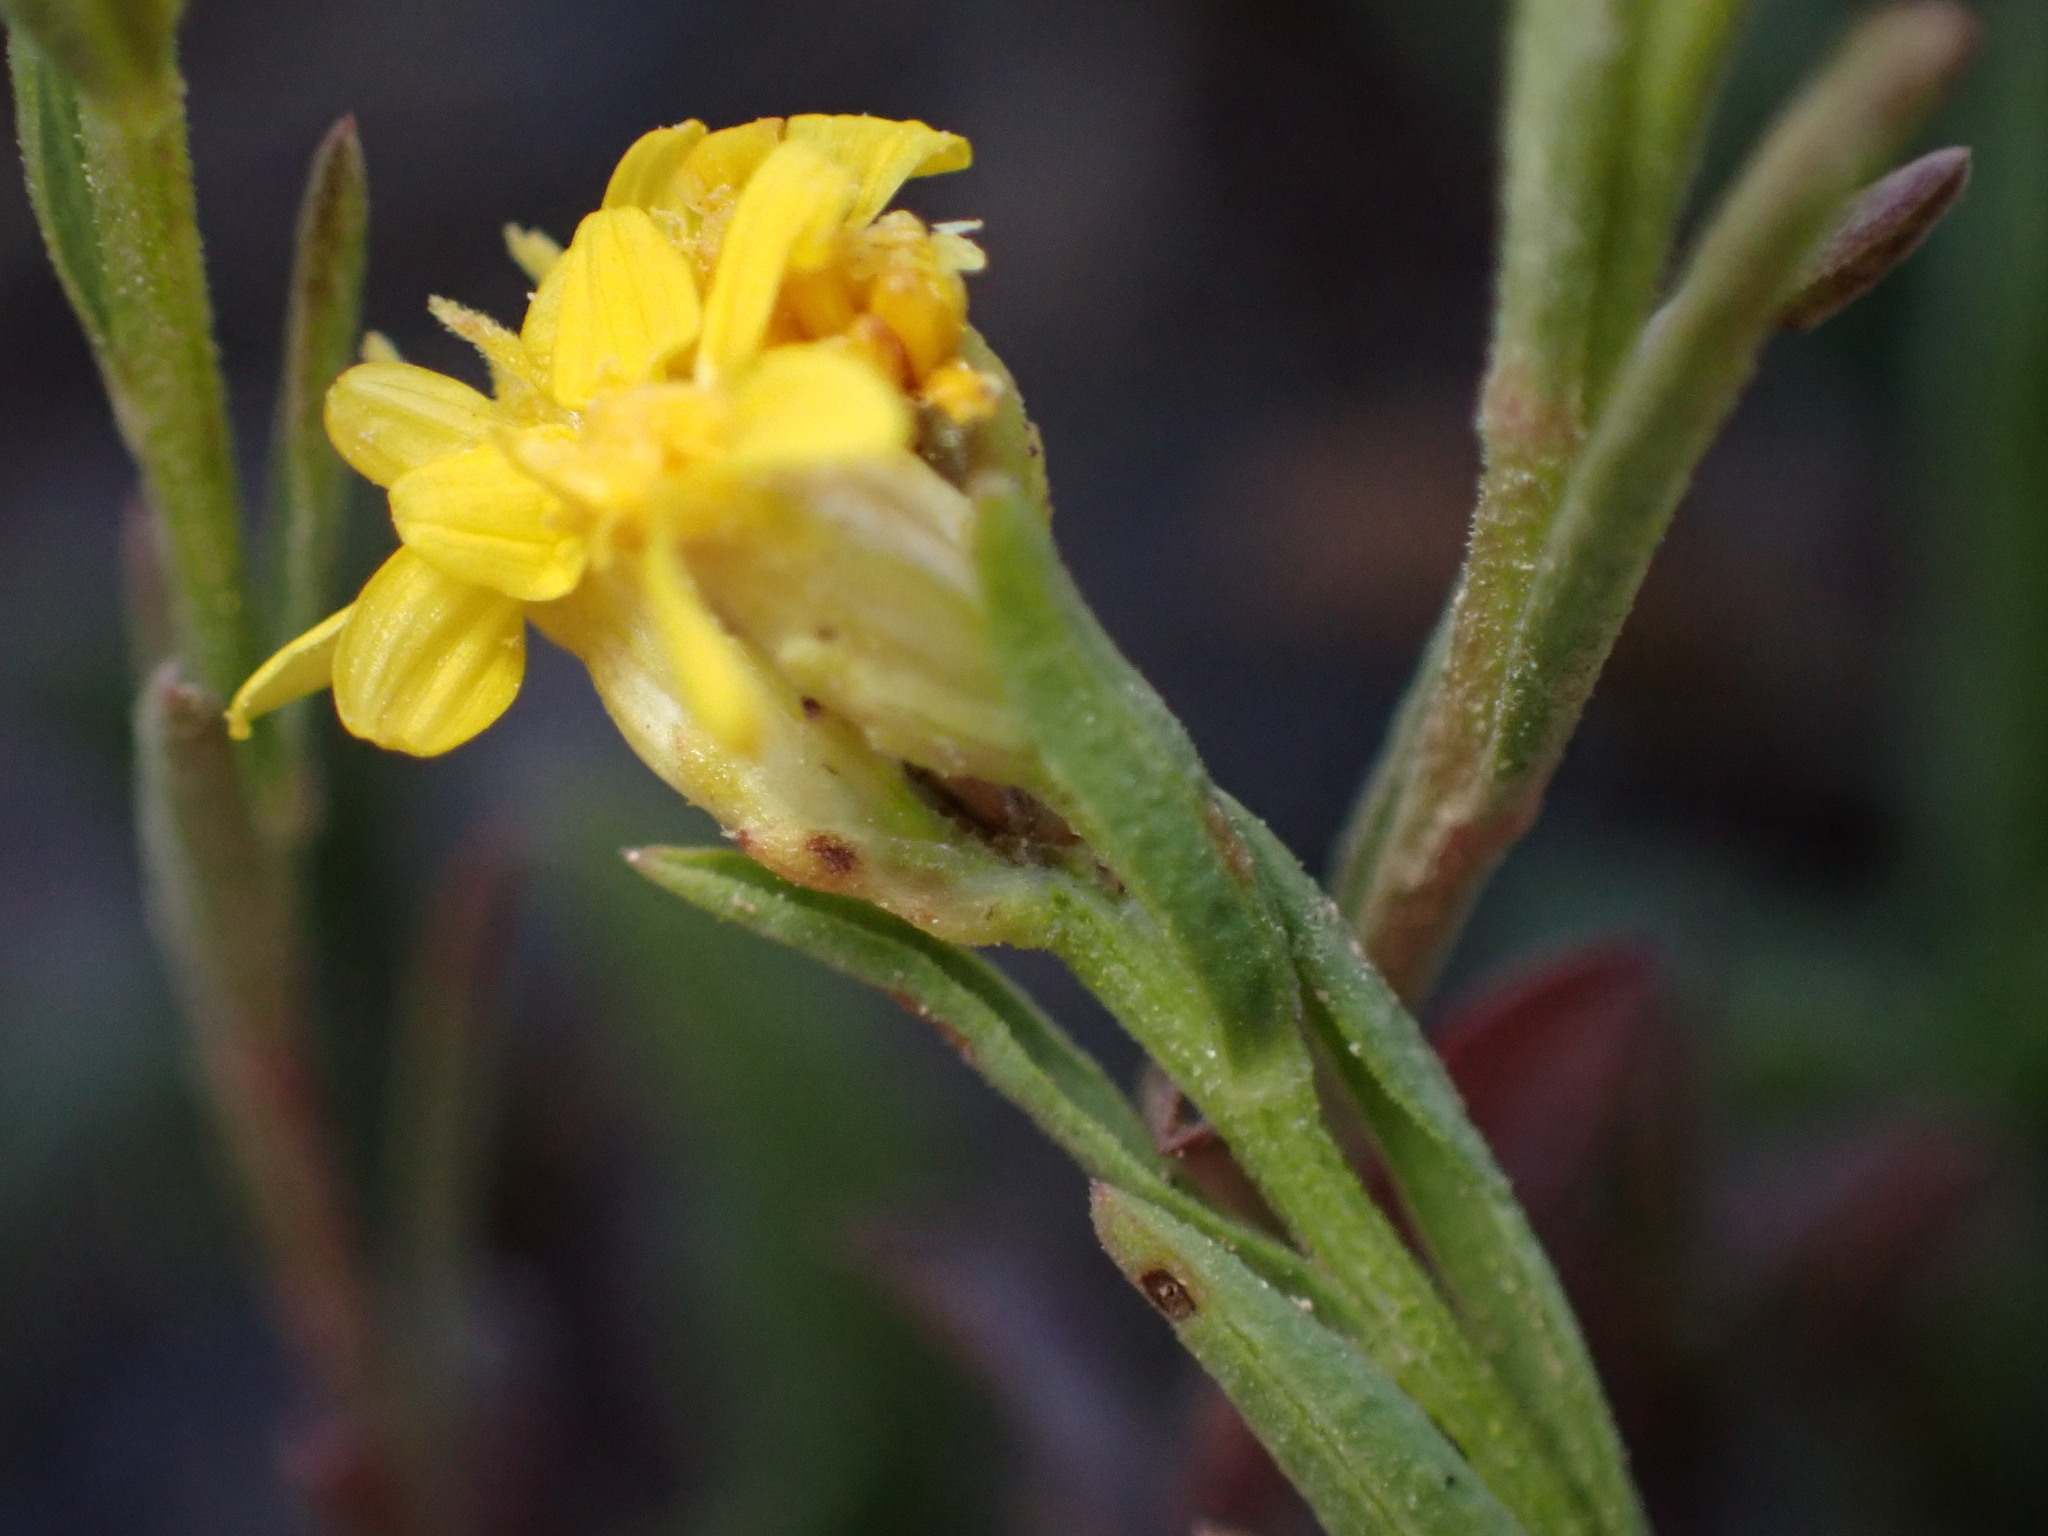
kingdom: Plantae
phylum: Tracheophyta
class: Magnoliopsida
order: Asterales
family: Asteraceae
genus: Gutierrezia
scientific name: Gutierrezia elegans
